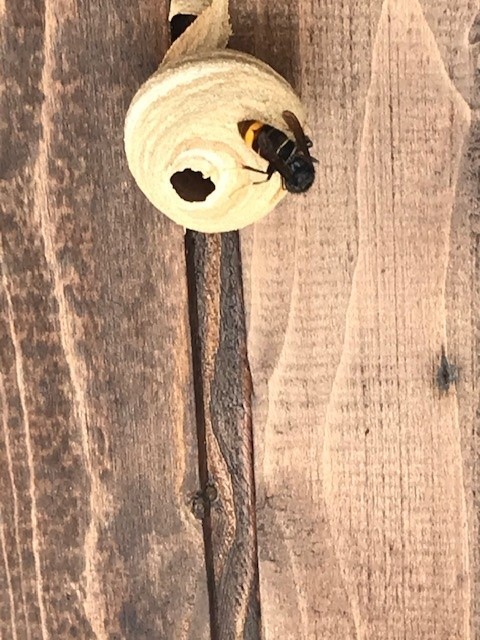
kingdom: Animalia
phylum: Arthropoda
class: Insecta
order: Hymenoptera
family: Vespidae
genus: Vespa
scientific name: Vespa velutina
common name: Asian hornet
